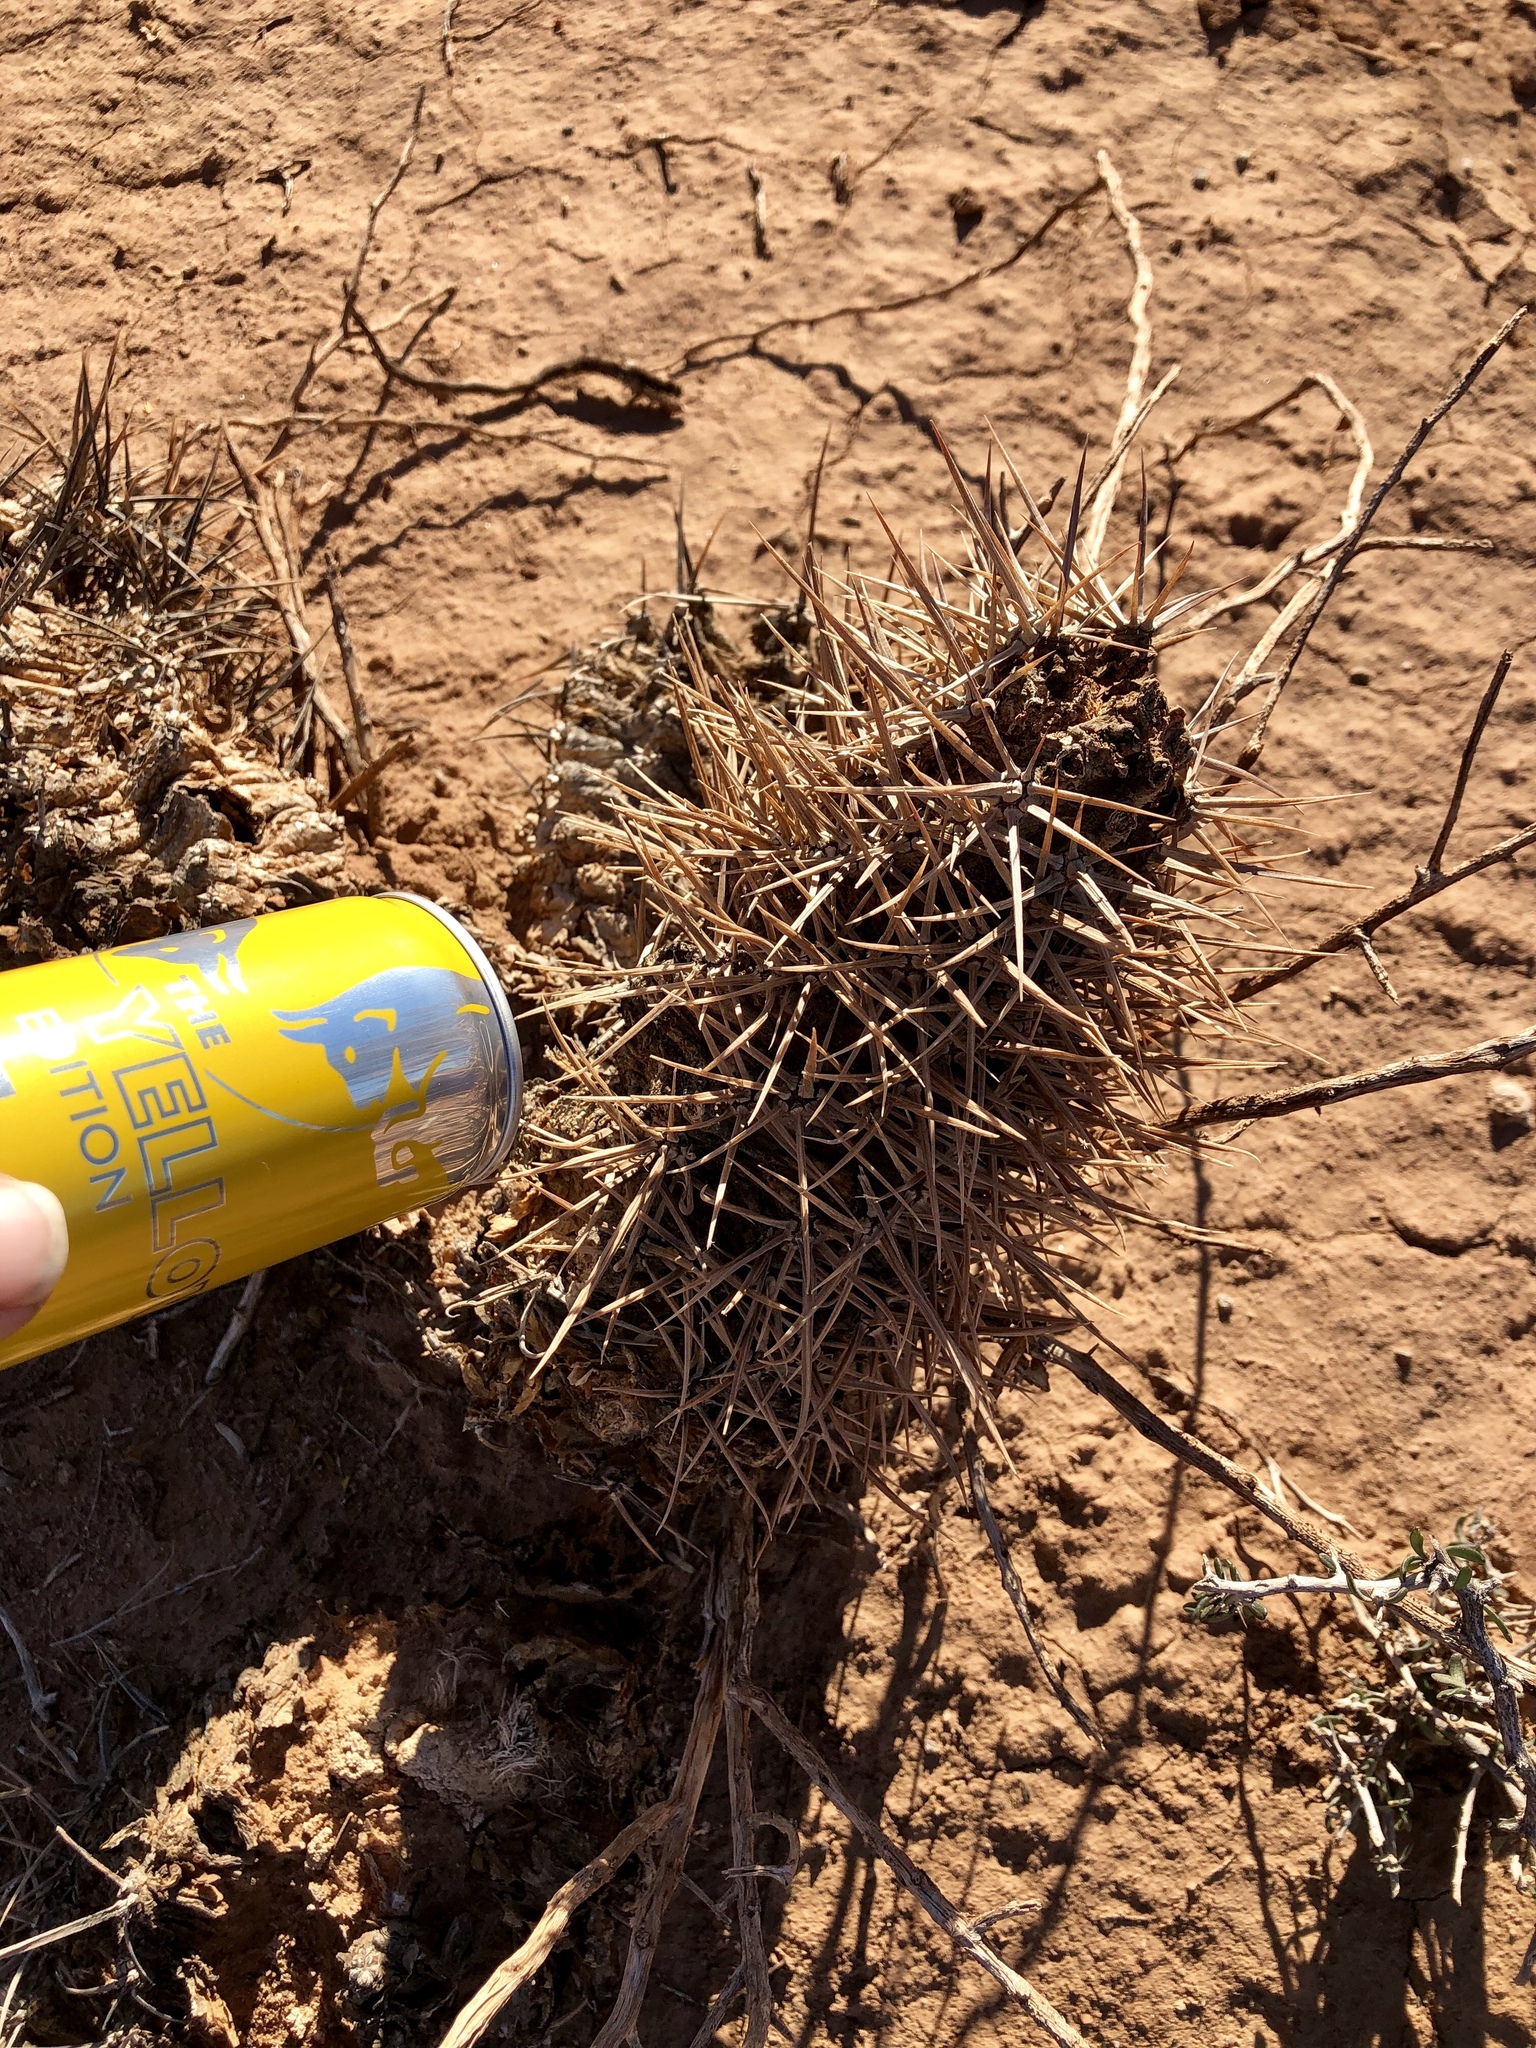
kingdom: Plantae
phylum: Tracheophyta
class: Magnoliopsida
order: Caryophyllales
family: Cactaceae
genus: Echinocereus
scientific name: Echinocereus triglochidiatus
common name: Claretcup hedgehog
